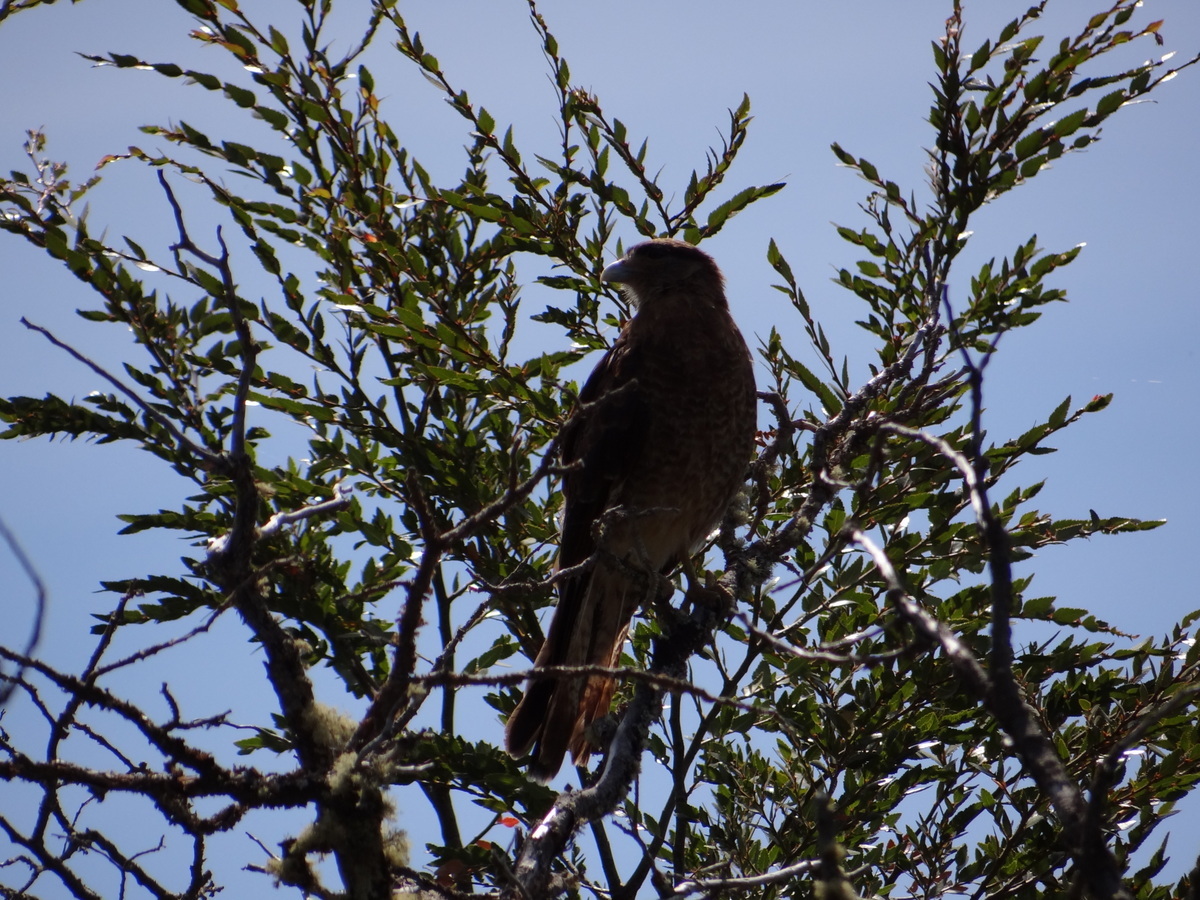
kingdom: Animalia
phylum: Chordata
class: Aves
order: Falconiformes
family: Falconidae
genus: Daptrius
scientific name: Daptrius
